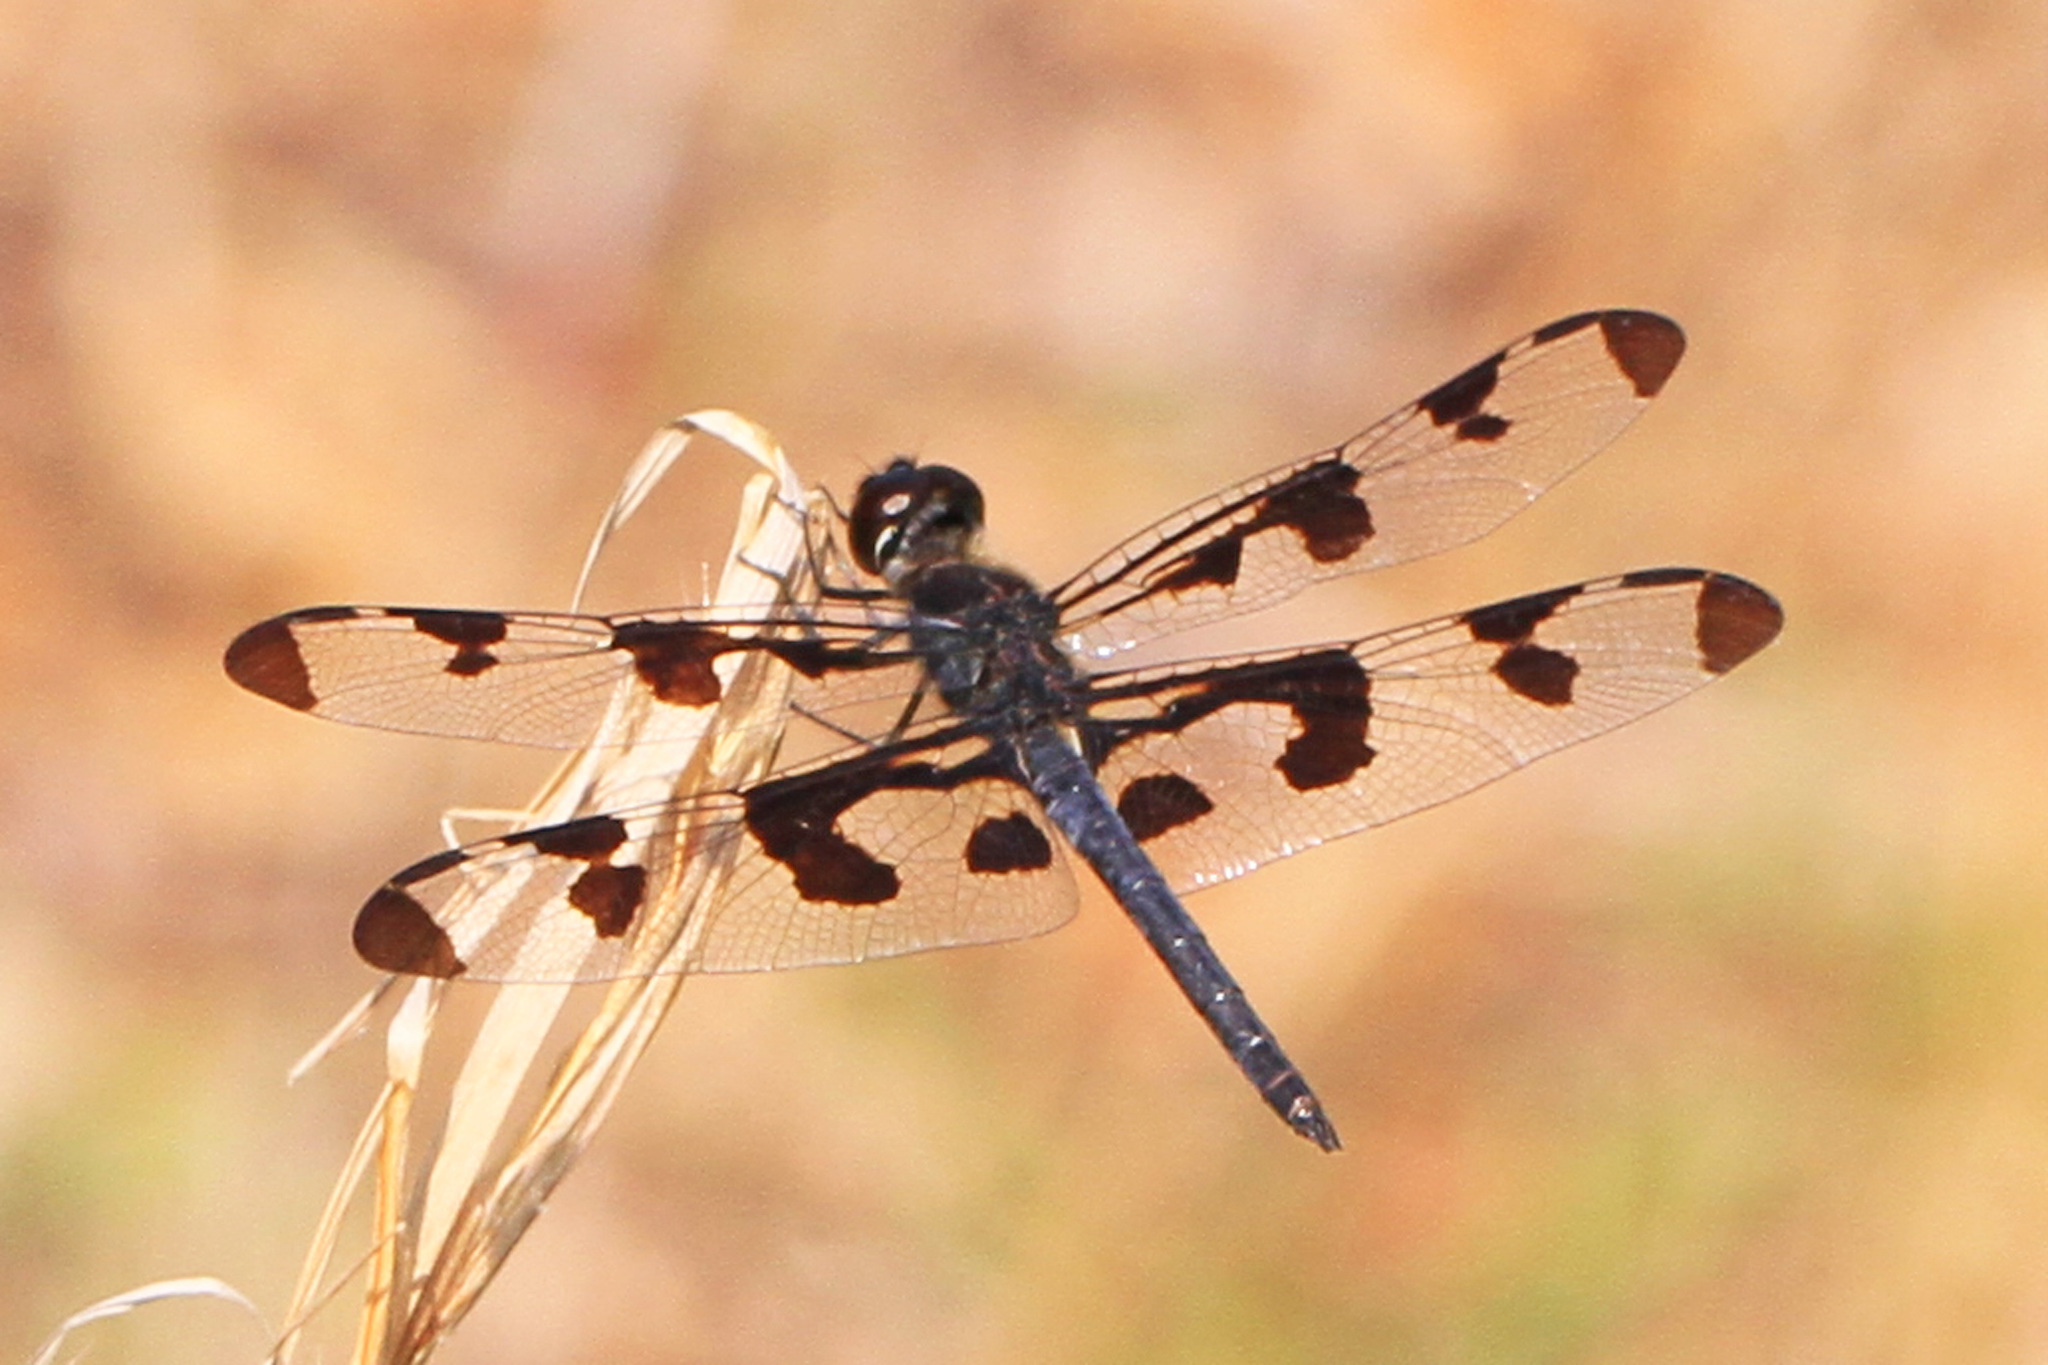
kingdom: Animalia
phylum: Arthropoda
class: Insecta
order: Odonata
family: Libellulidae
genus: Celithemis
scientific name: Celithemis fasciata
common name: Banded pennant
